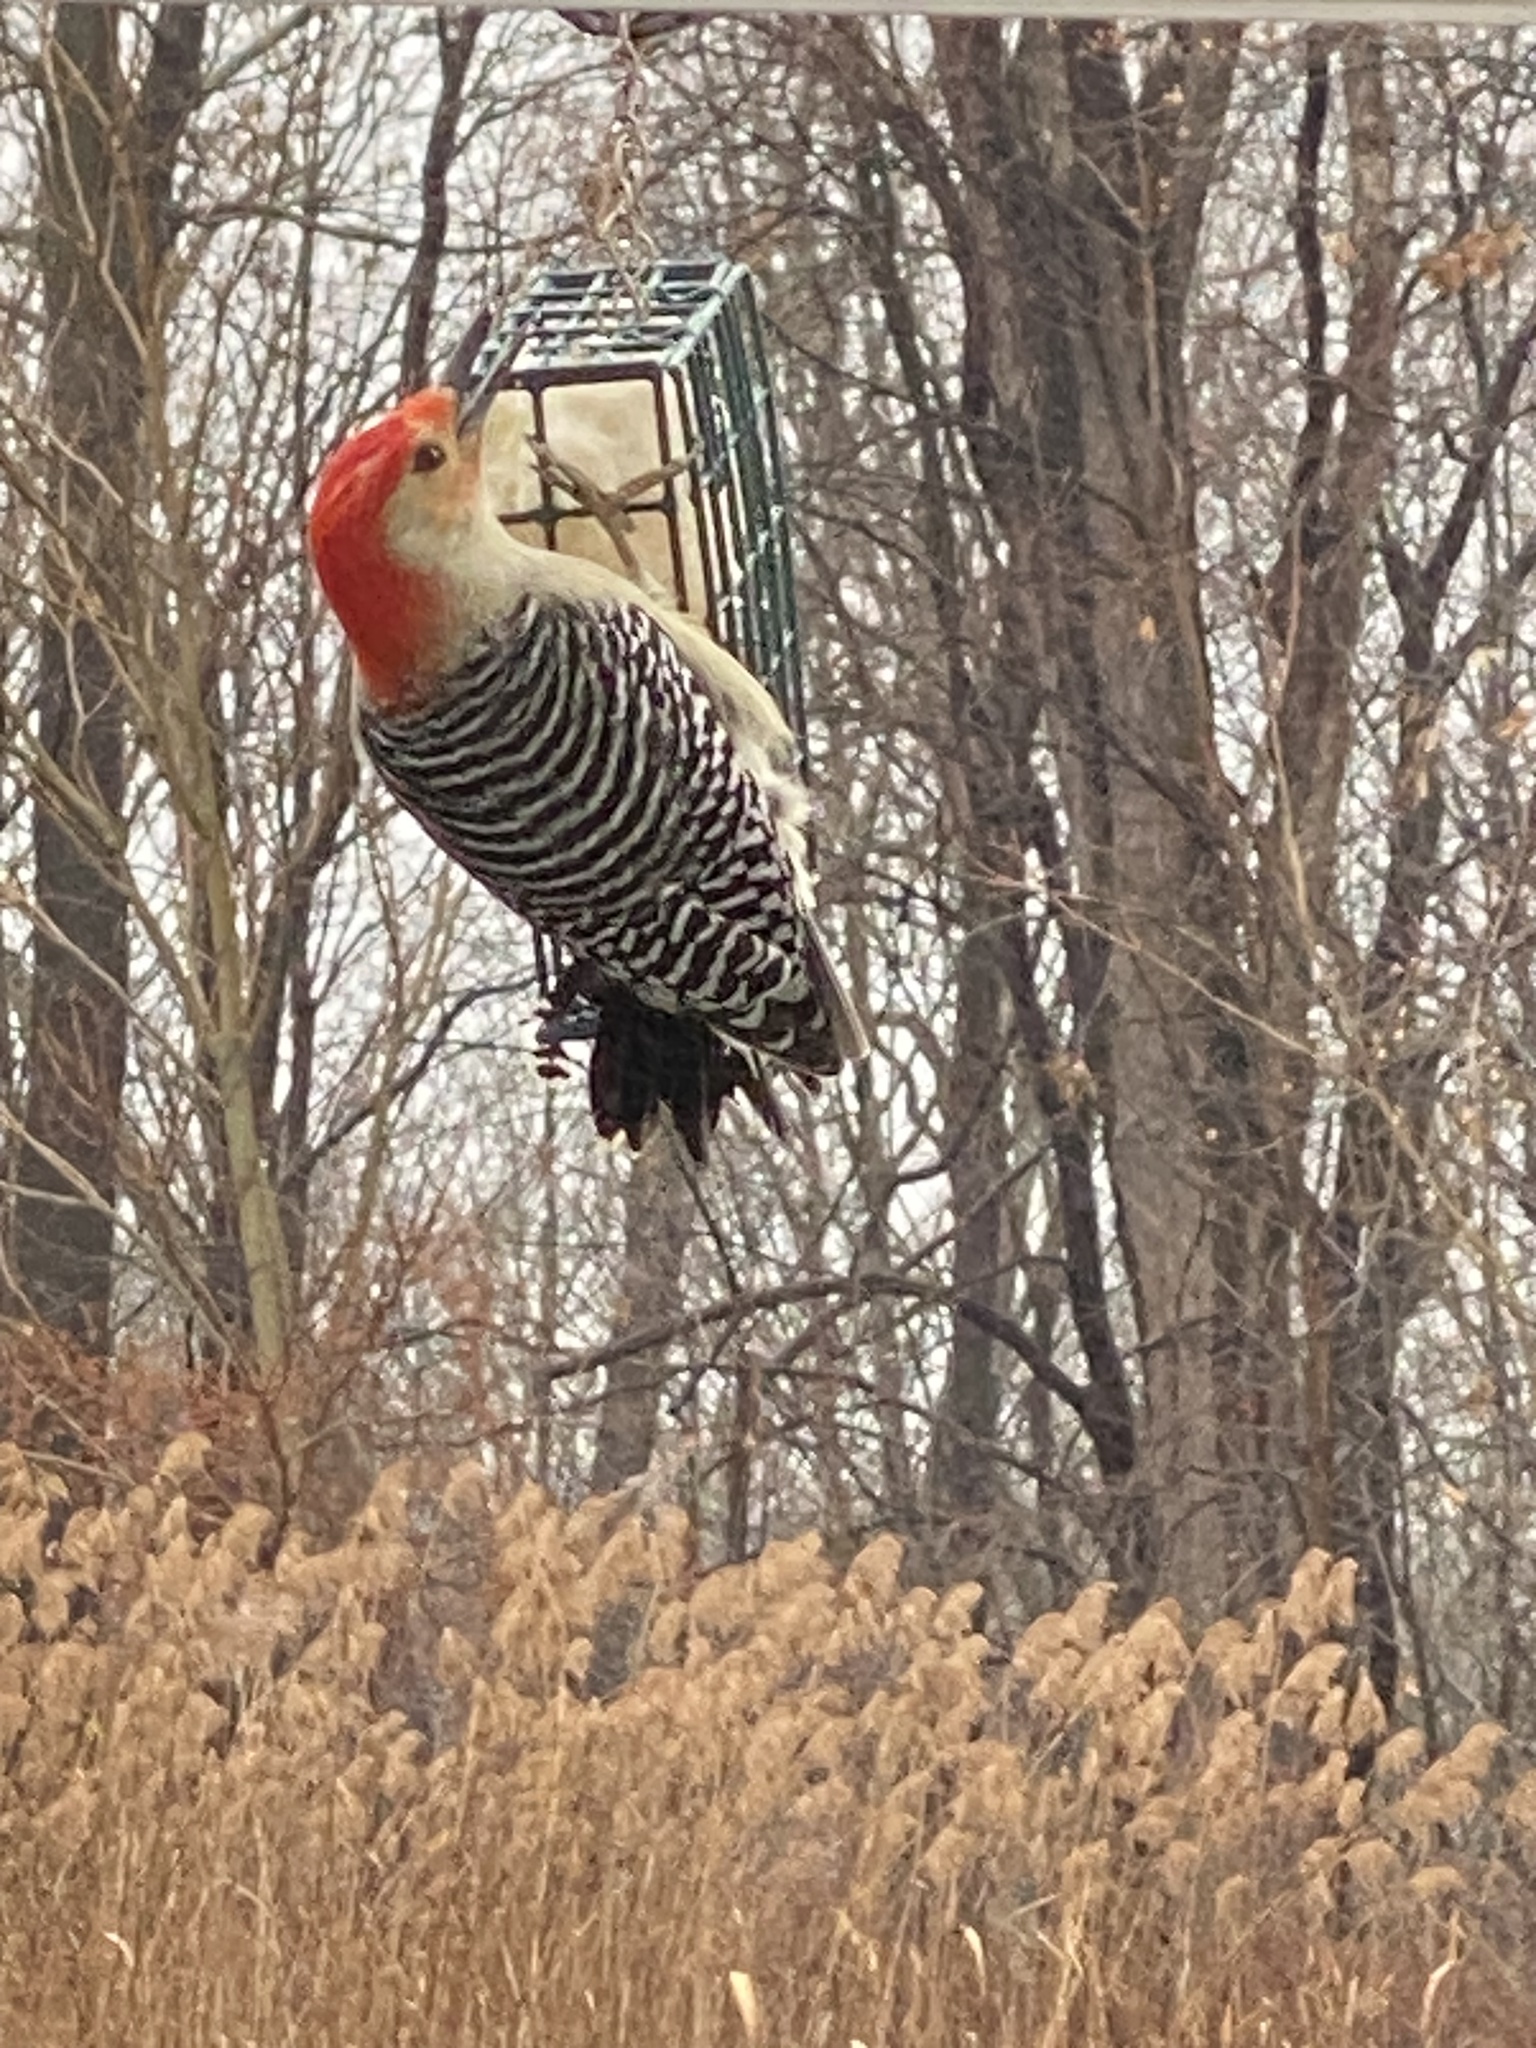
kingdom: Animalia
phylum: Chordata
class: Aves
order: Piciformes
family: Picidae
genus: Melanerpes
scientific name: Melanerpes carolinus
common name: Red-bellied woodpecker
